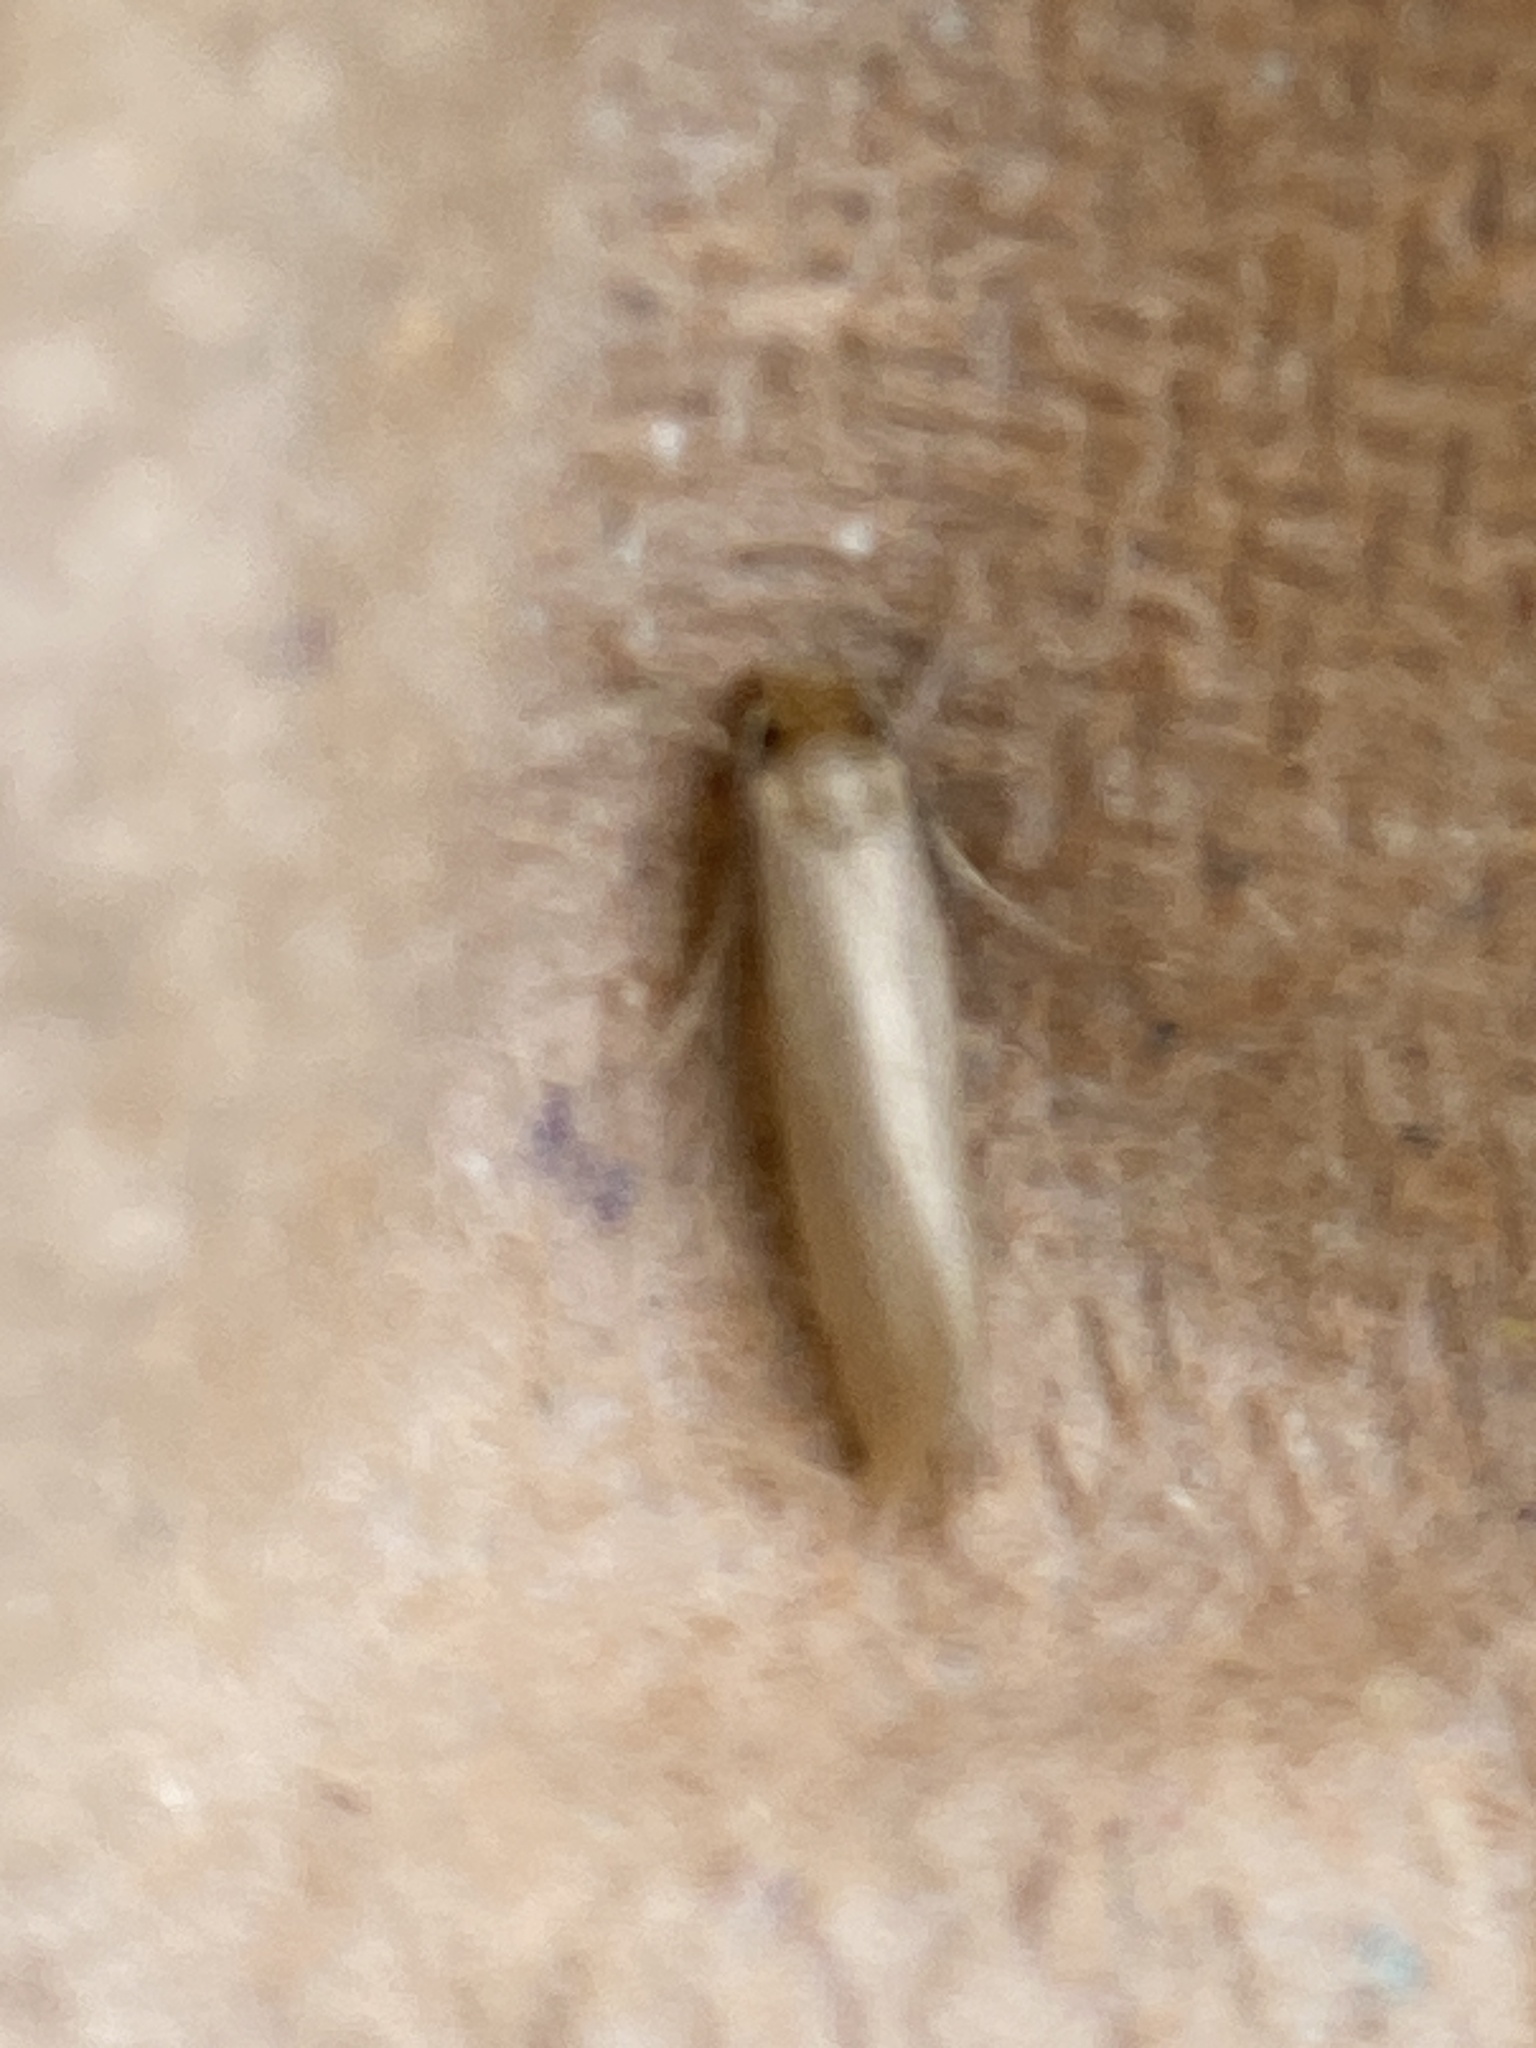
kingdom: Animalia
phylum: Arthropoda
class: Insecta
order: Lepidoptera
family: Tineidae
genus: Tineola
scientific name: Tineola bisselliella
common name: Webbing clothes moth
